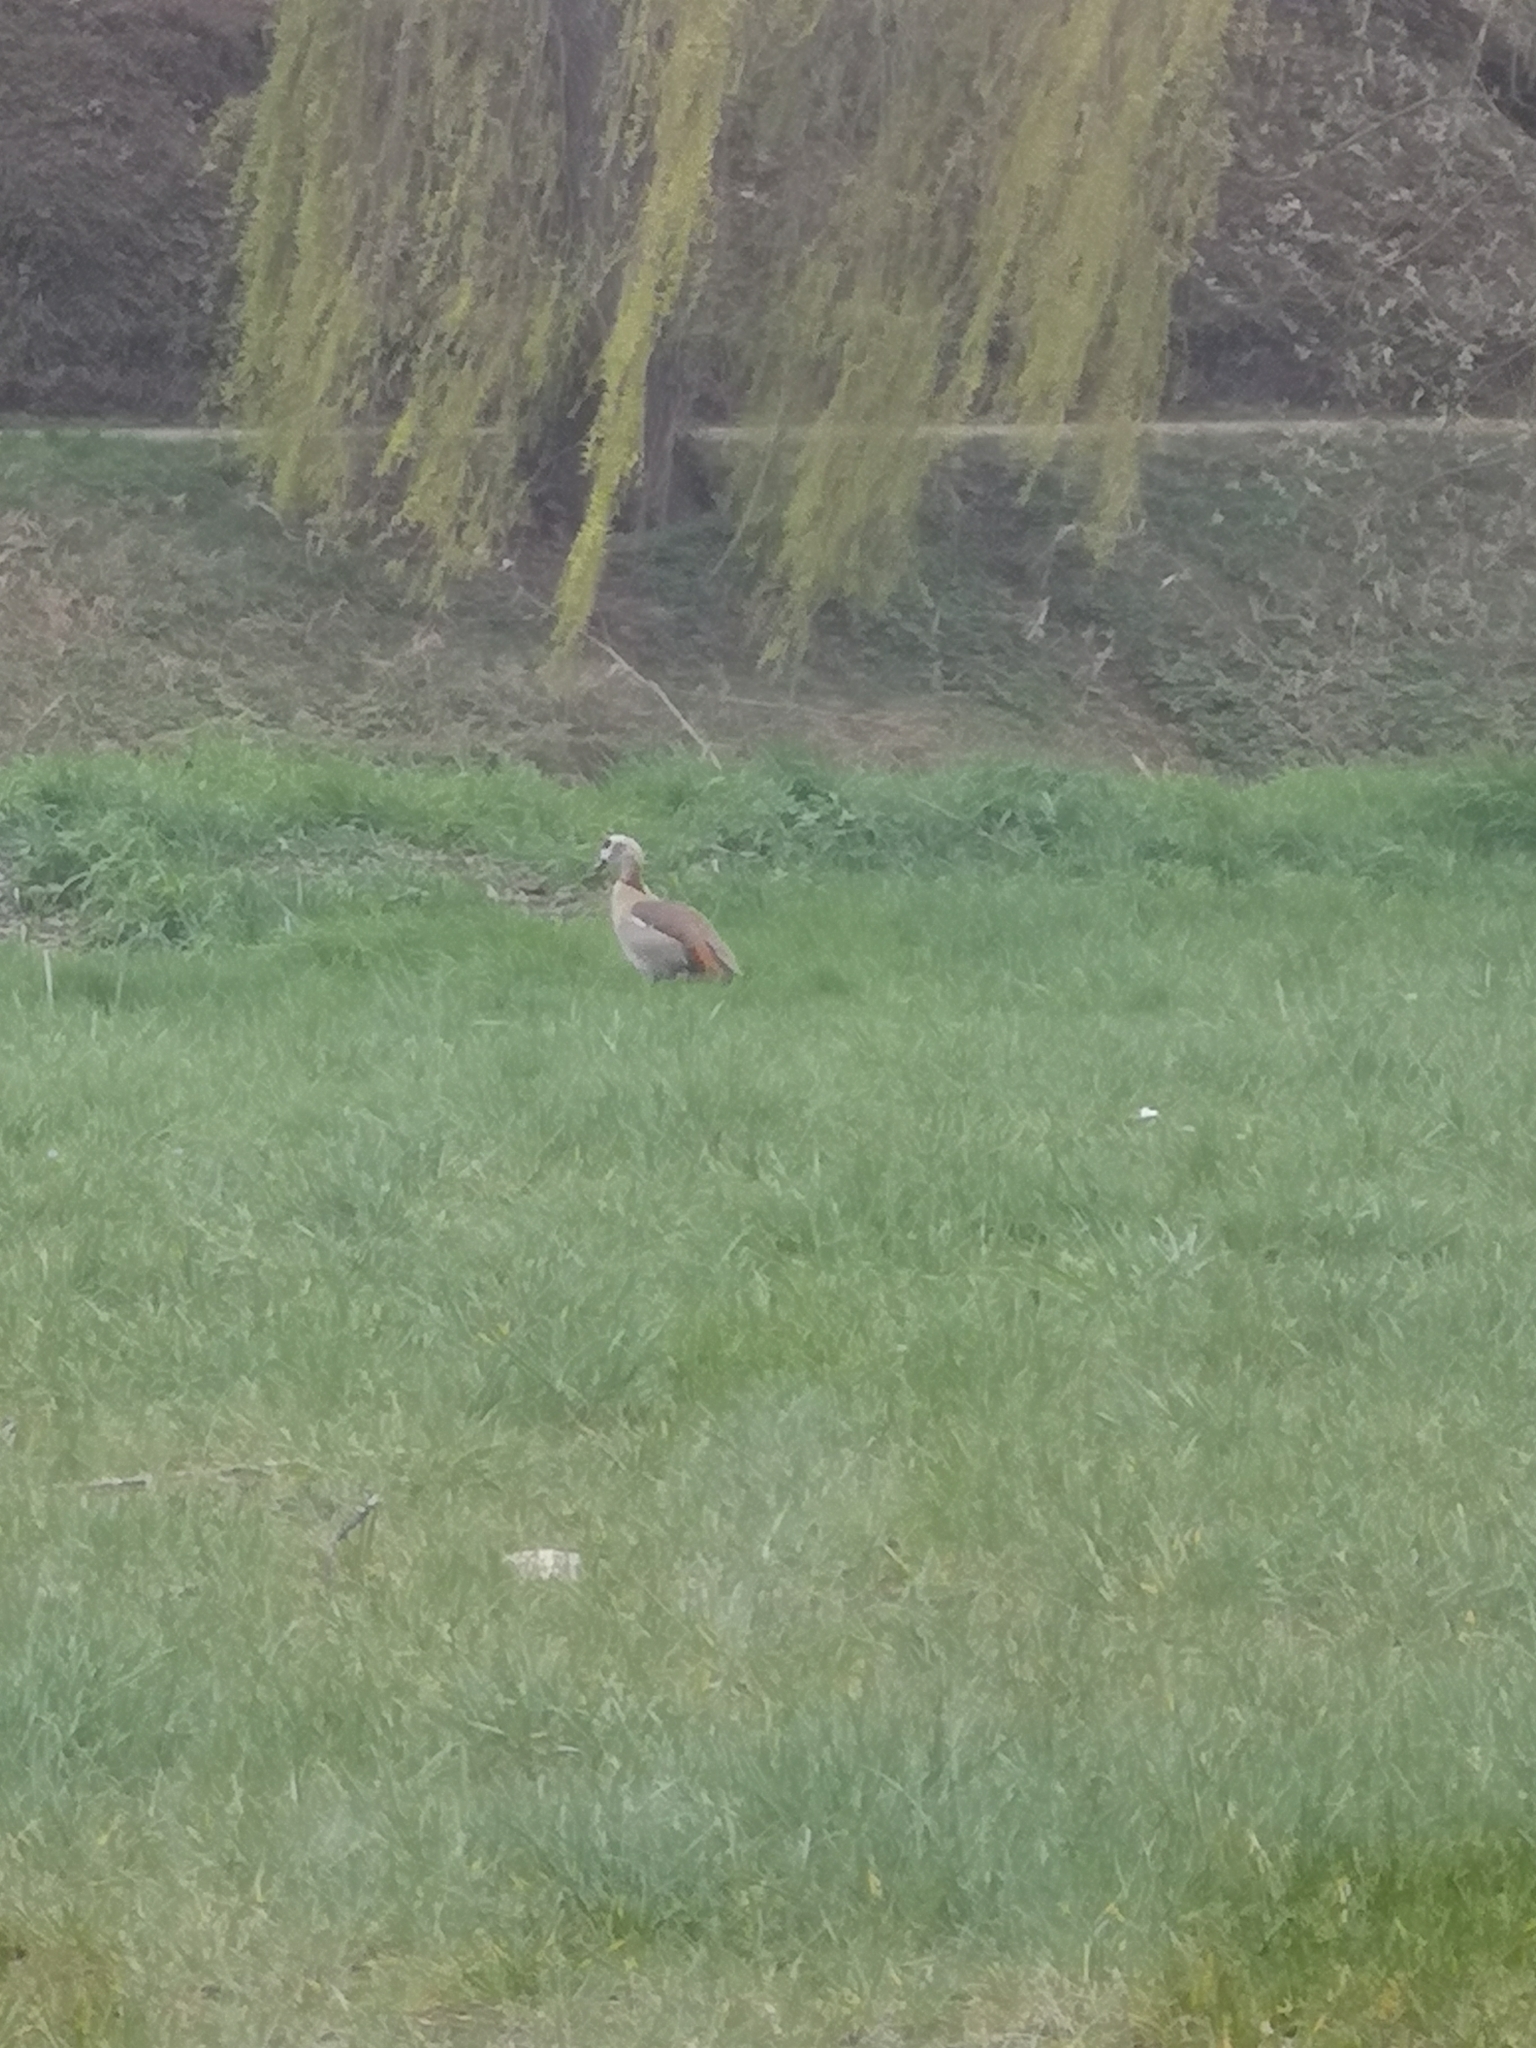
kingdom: Animalia
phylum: Chordata
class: Aves
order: Anseriformes
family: Anatidae
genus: Alopochen
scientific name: Alopochen aegyptiaca
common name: Egyptian goose
